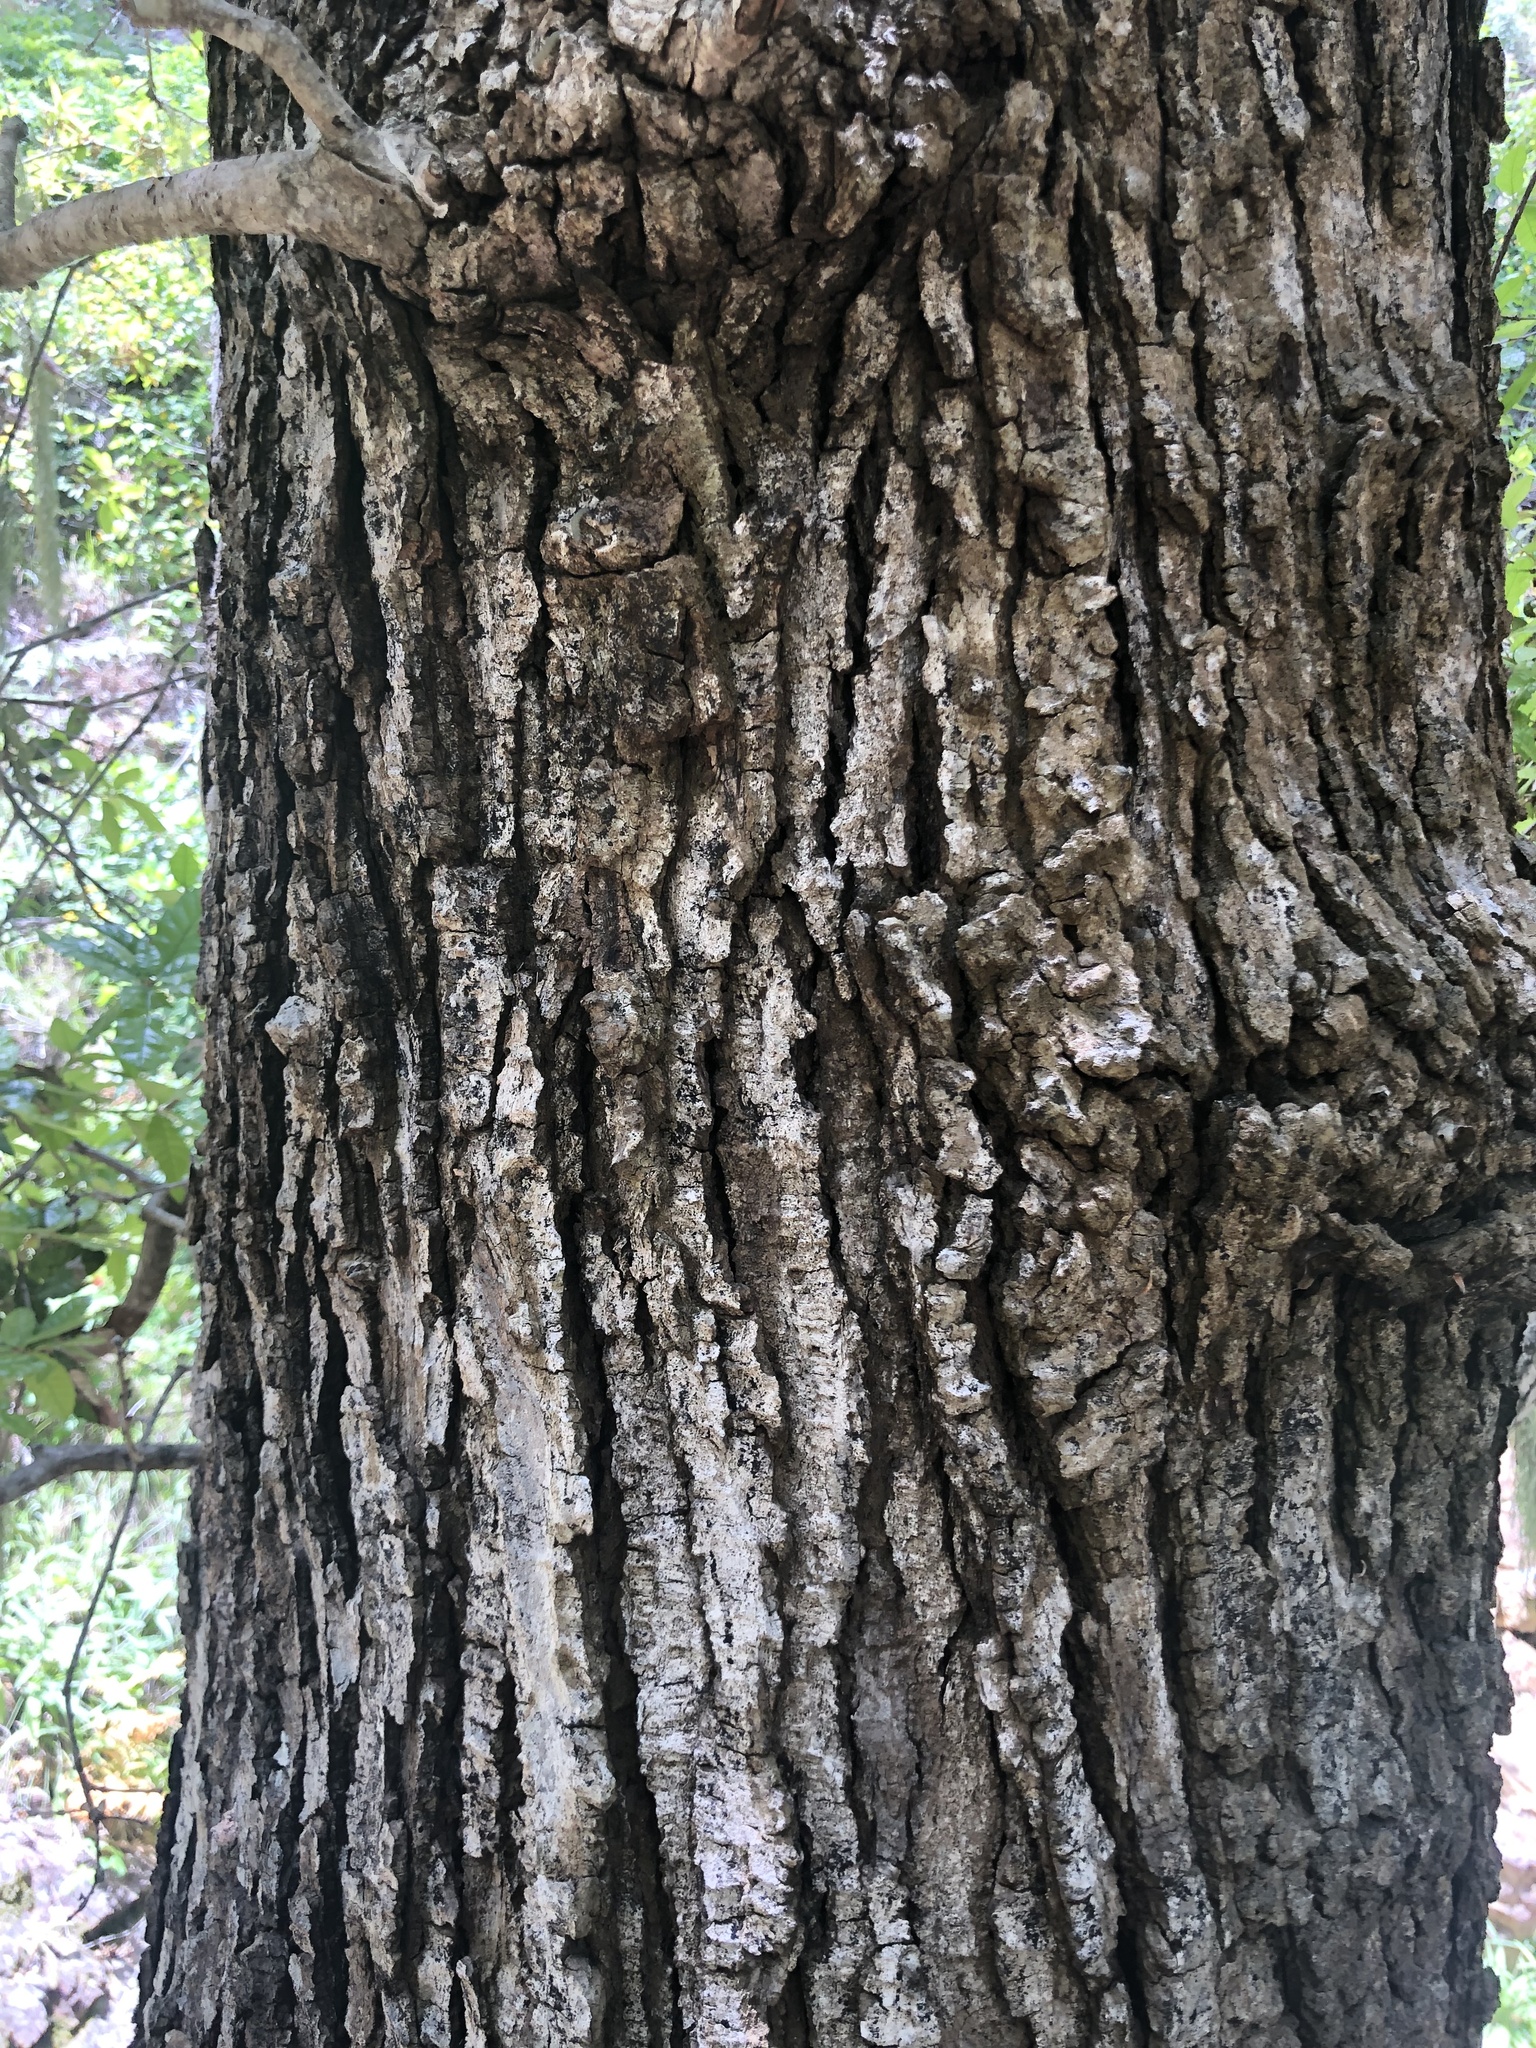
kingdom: Plantae
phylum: Tracheophyta
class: Magnoliopsida
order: Fagales
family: Fagaceae
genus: Quercus
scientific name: Quercus tomentella
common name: Island oak
